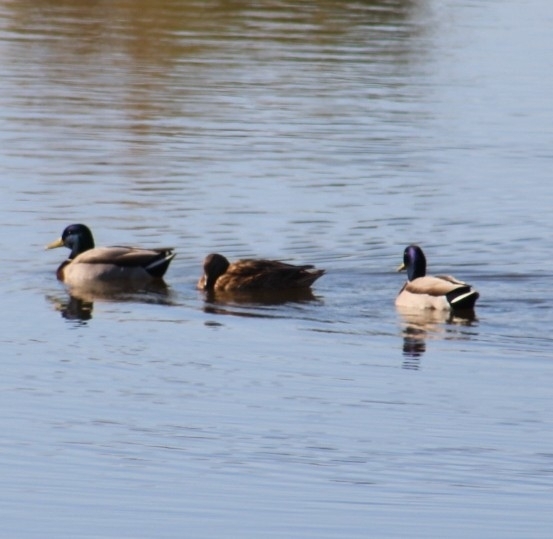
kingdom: Animalia
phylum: Chordata
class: Aves
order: Anseriformes
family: Anatidae
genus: Anas
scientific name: Anas platyrhynchos
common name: Mallard
